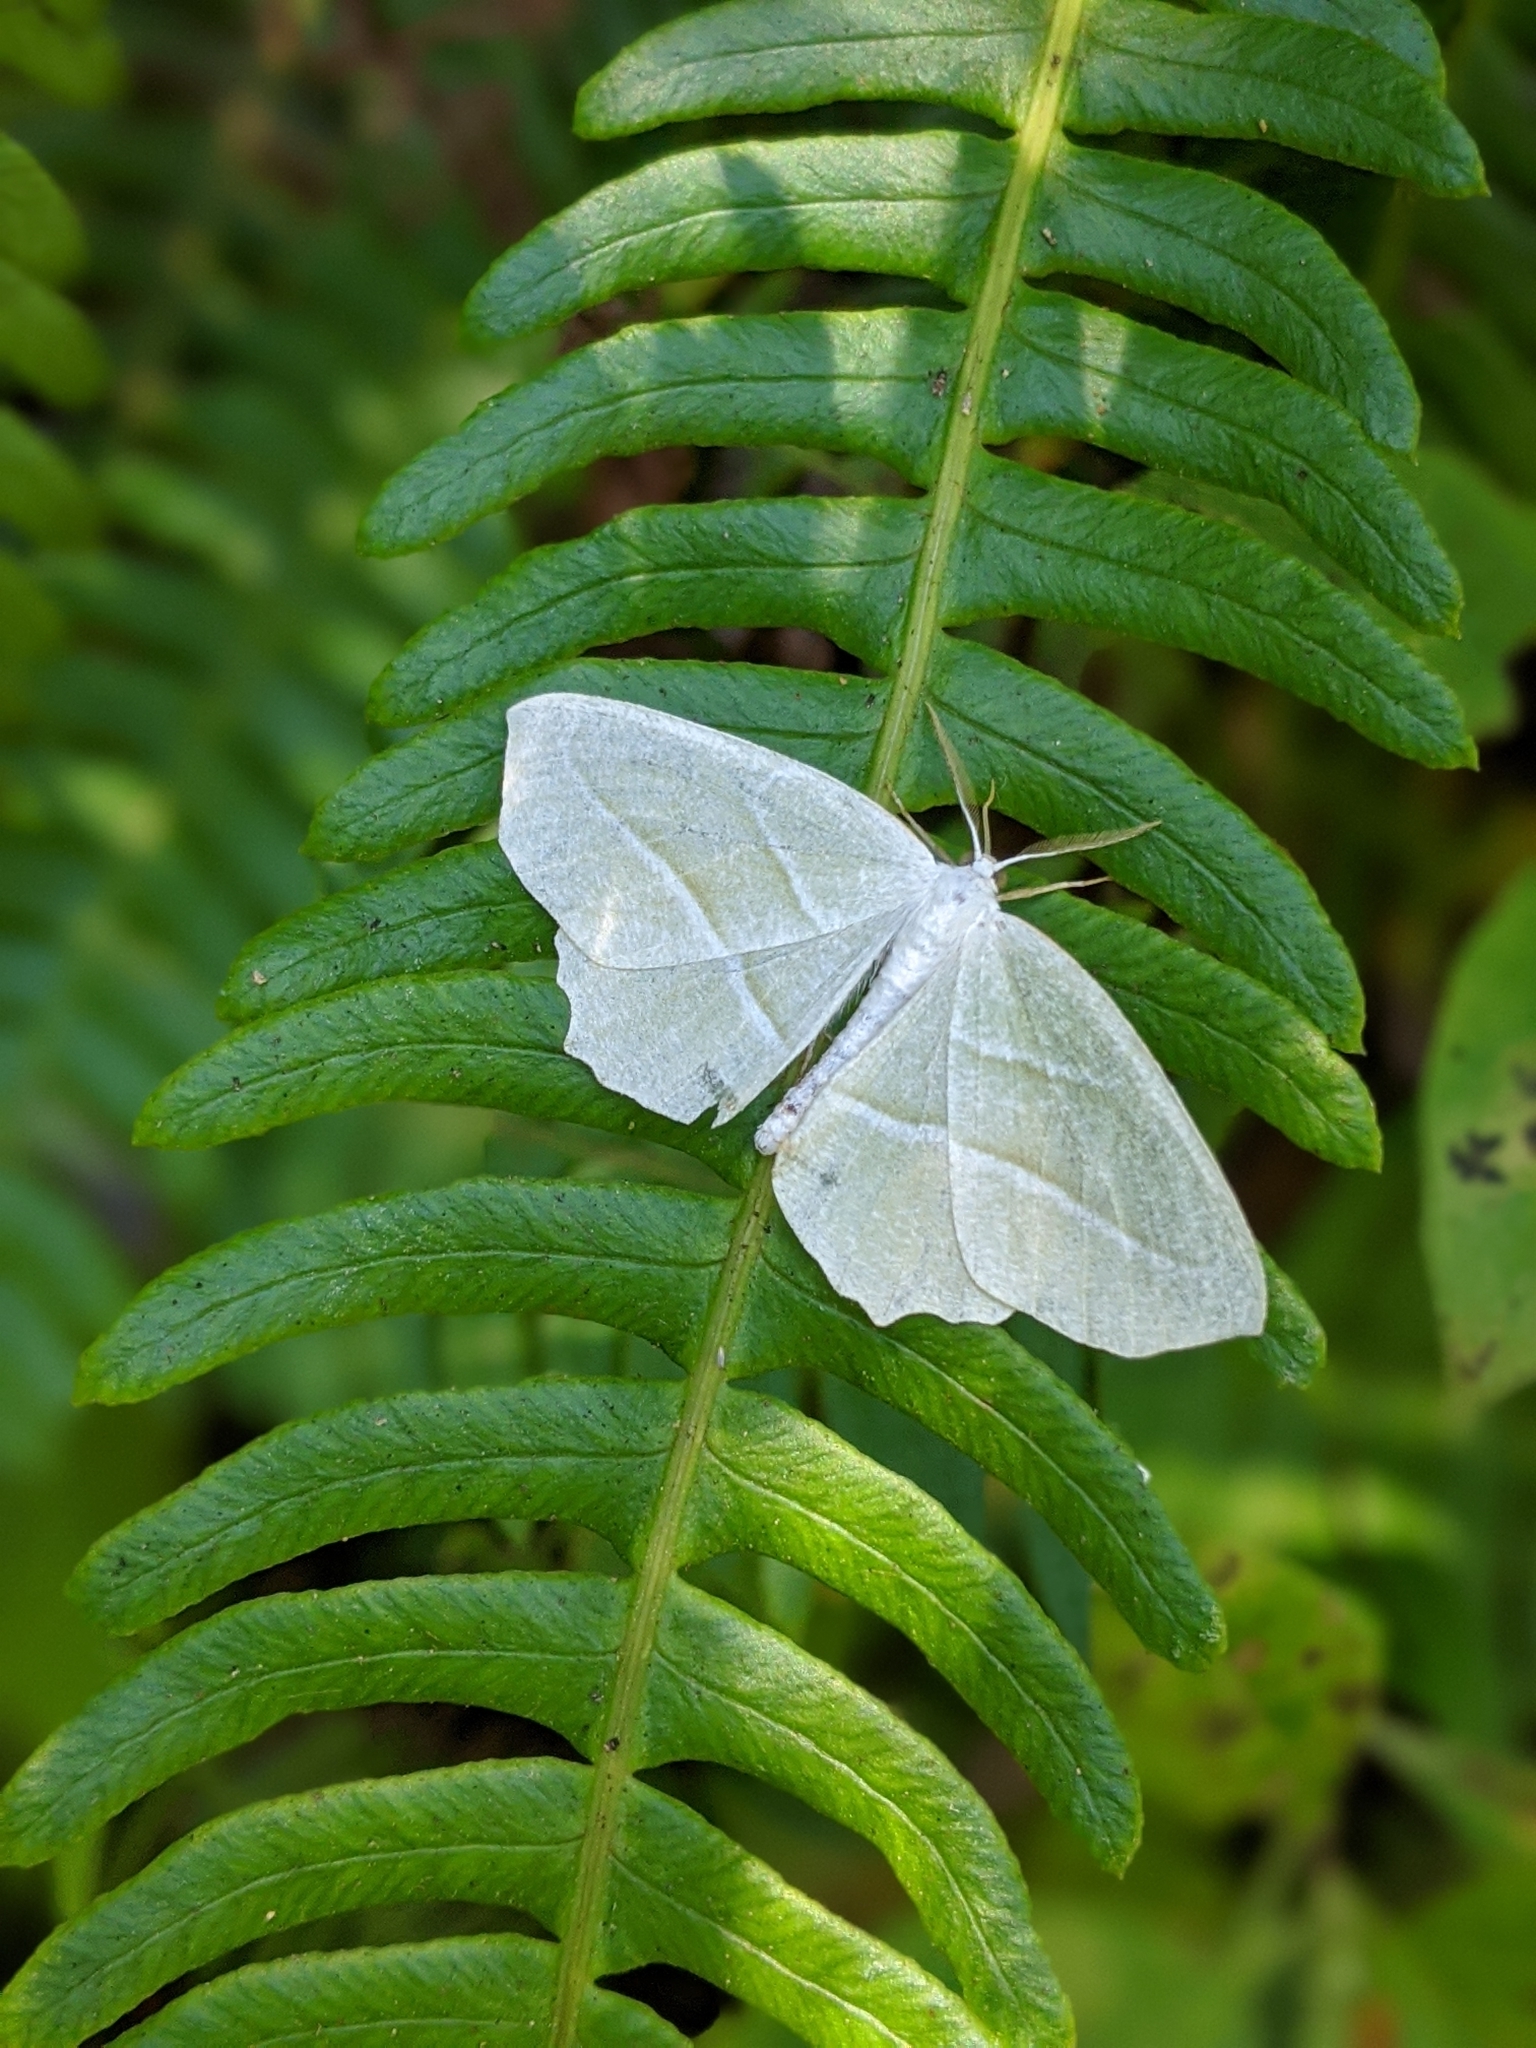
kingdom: Animalia
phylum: Arthropoda
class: Insecta
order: Lepidoptera
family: Geometridae
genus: Campaea
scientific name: Campaea perlata
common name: Fringed looper
